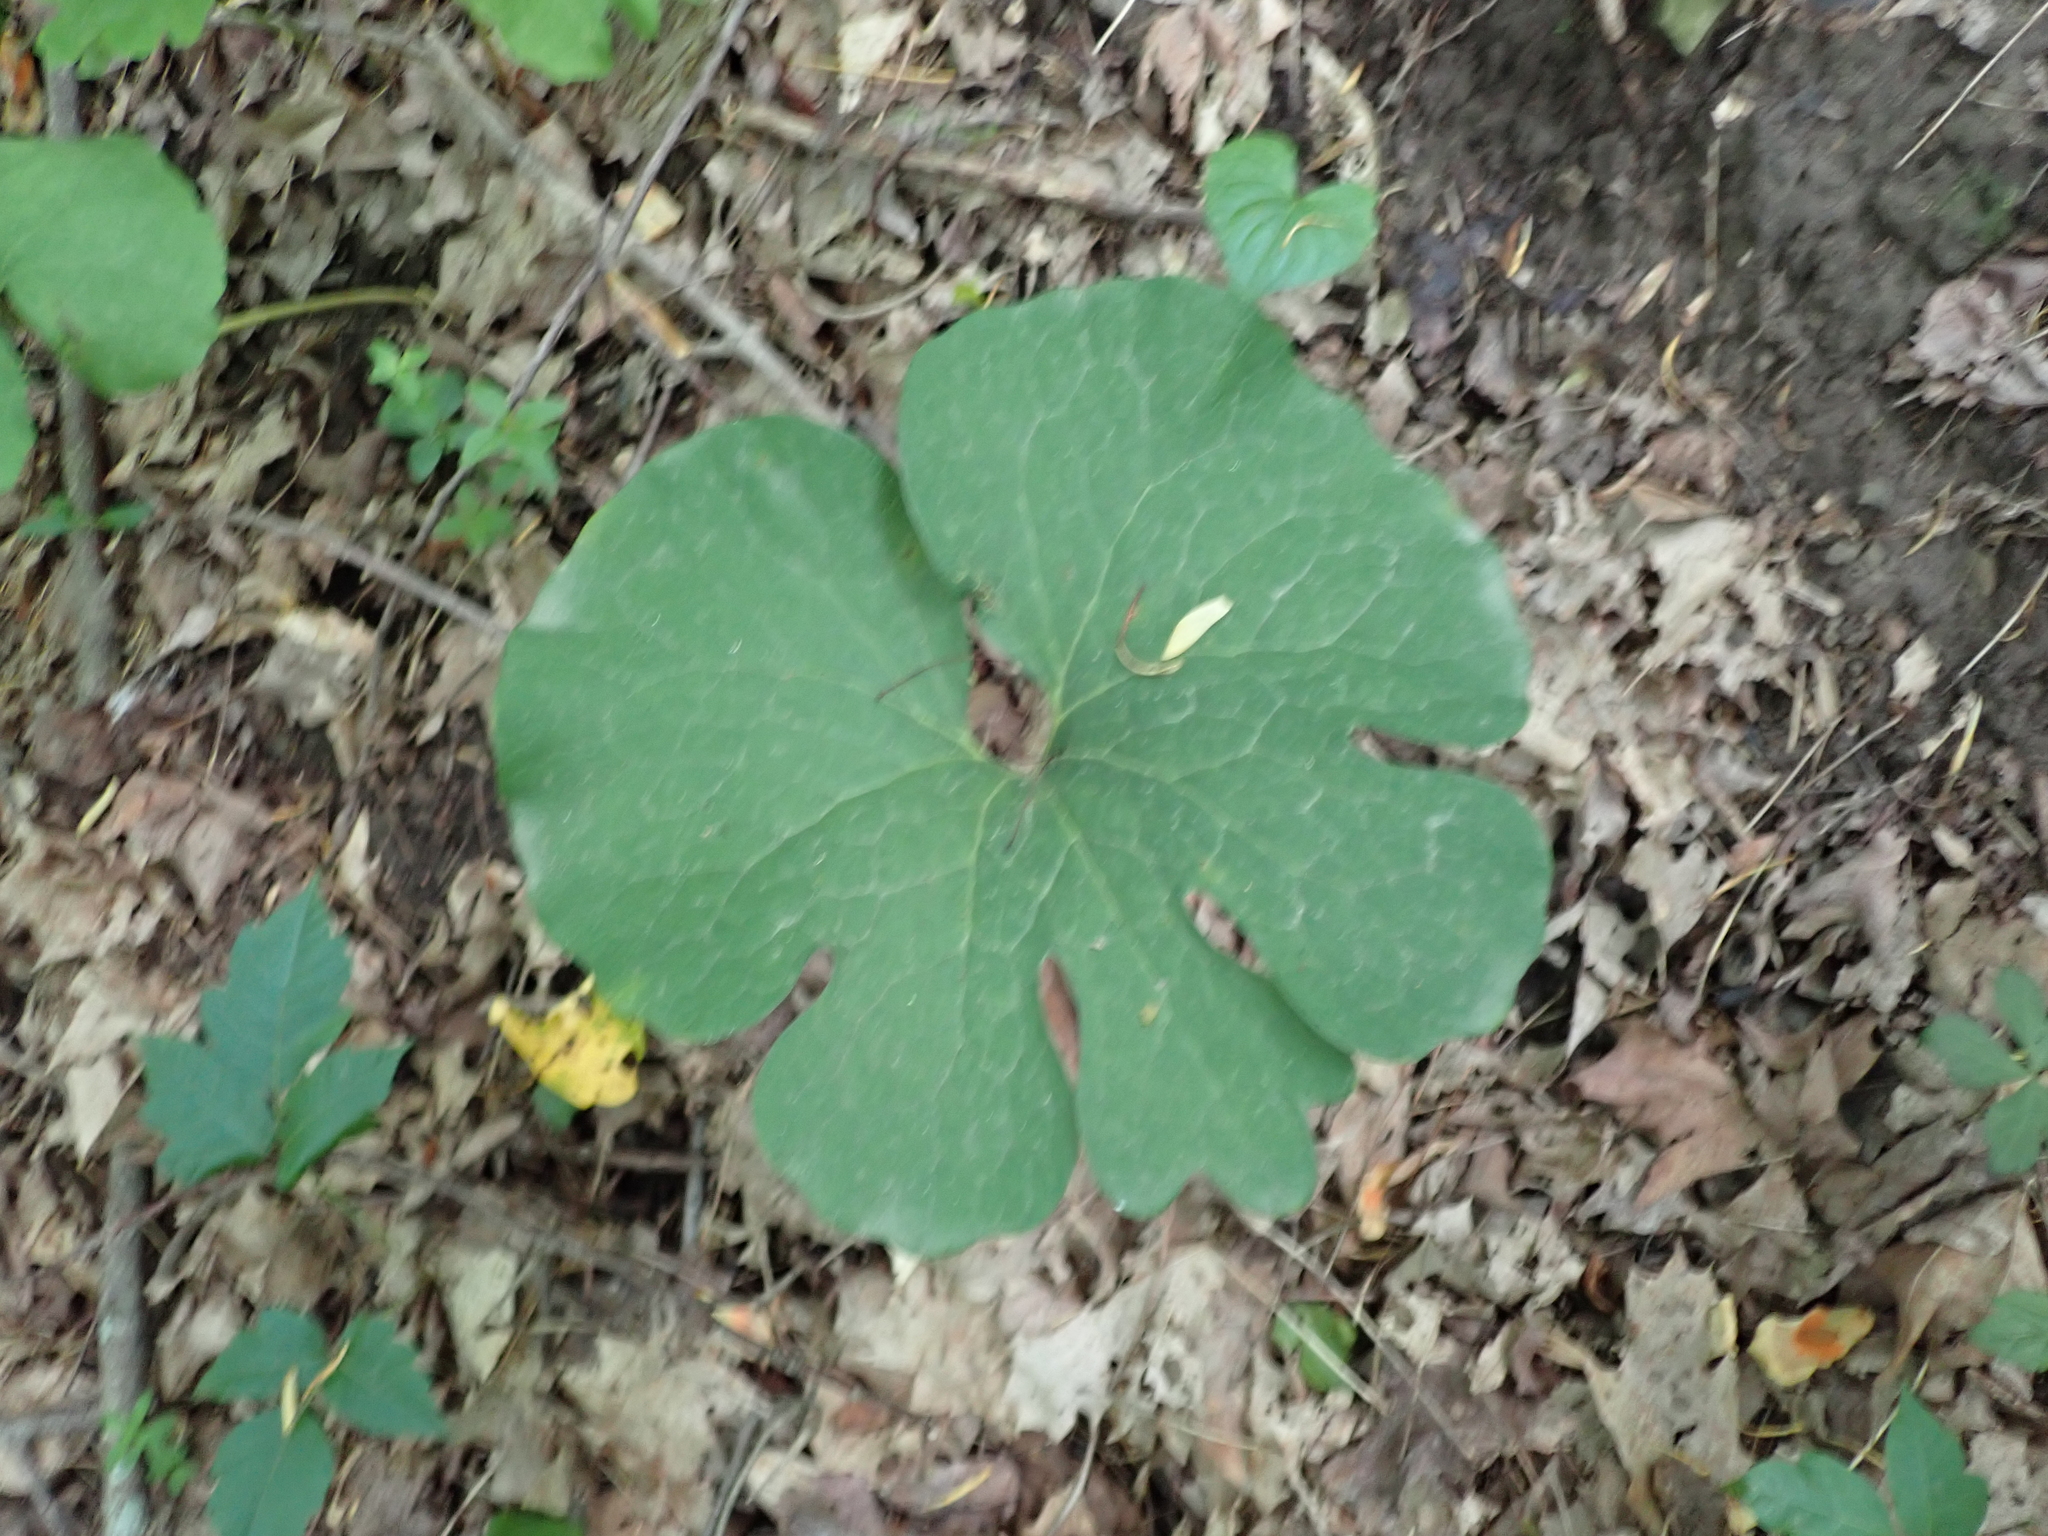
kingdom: Plantae
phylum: Tracheophyta
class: Magnoliopsida
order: Ranunculales
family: Papaveraceae
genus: Sanguinaria
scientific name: Sanguinaria canadensis
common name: Bloodroot
